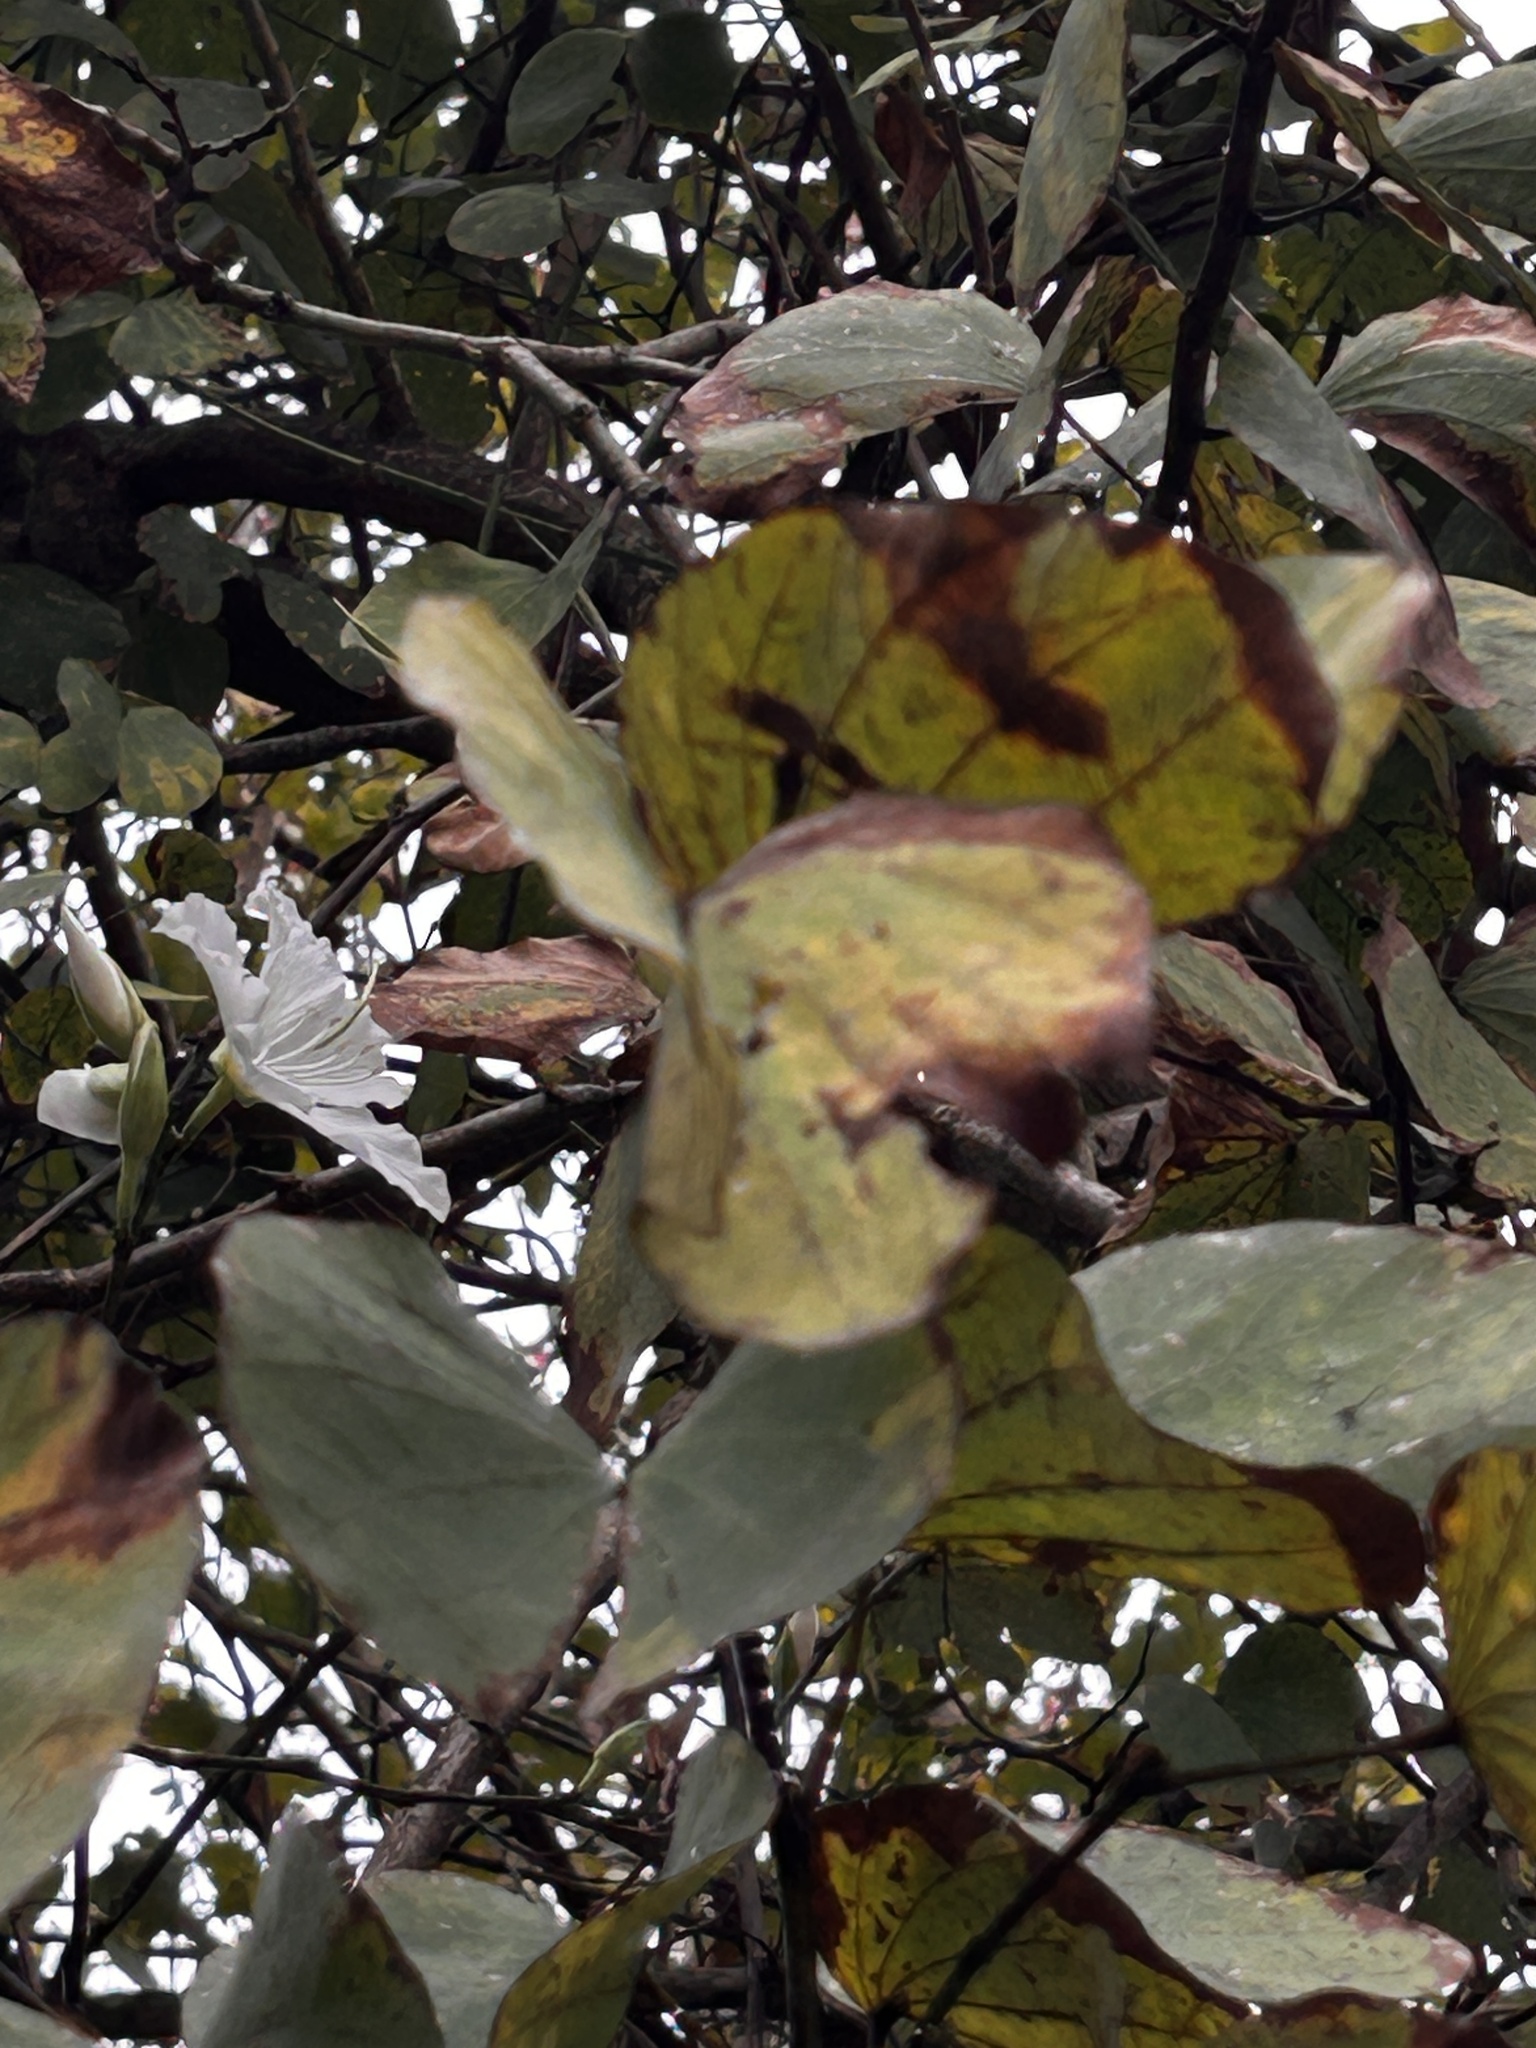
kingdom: Plantae
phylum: Tracheophyta
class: Magnoliopsida
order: Fabales
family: Fabaceae
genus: Bauhinia
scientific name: Bauhinia variegata
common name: Mountain ebony
